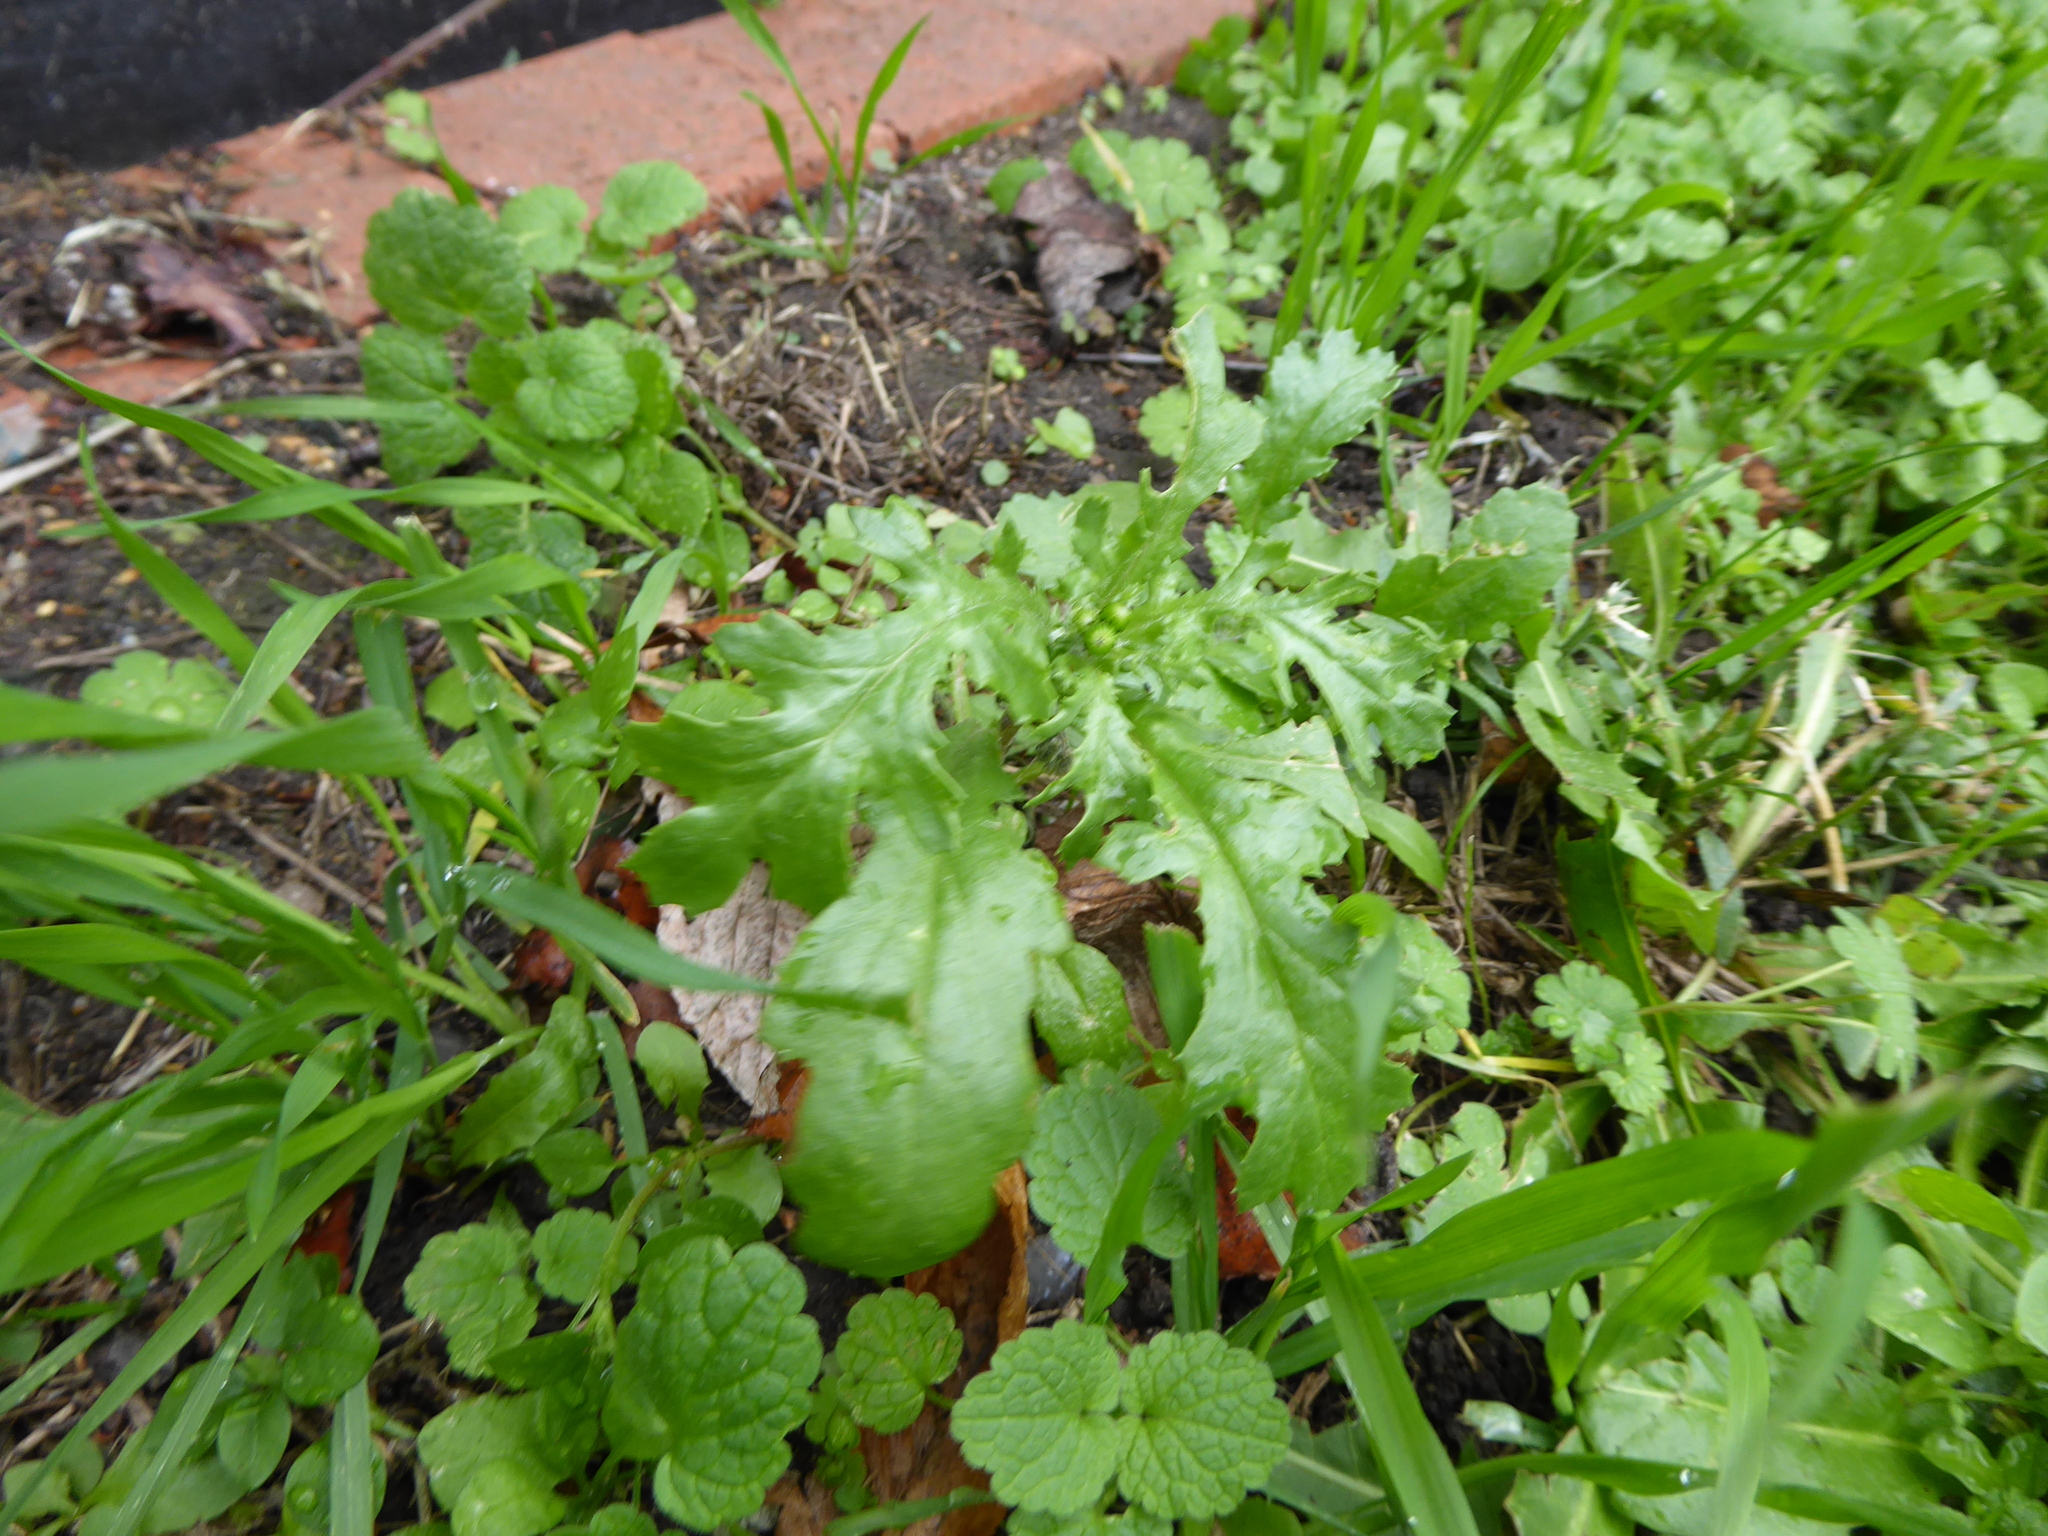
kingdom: Plantae
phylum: Tracheophyta
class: Magnoliopsida
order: Asterales
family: Asteraceae
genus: Senecio
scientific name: Senecio vulgaris
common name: Old-man-in-the-spring
